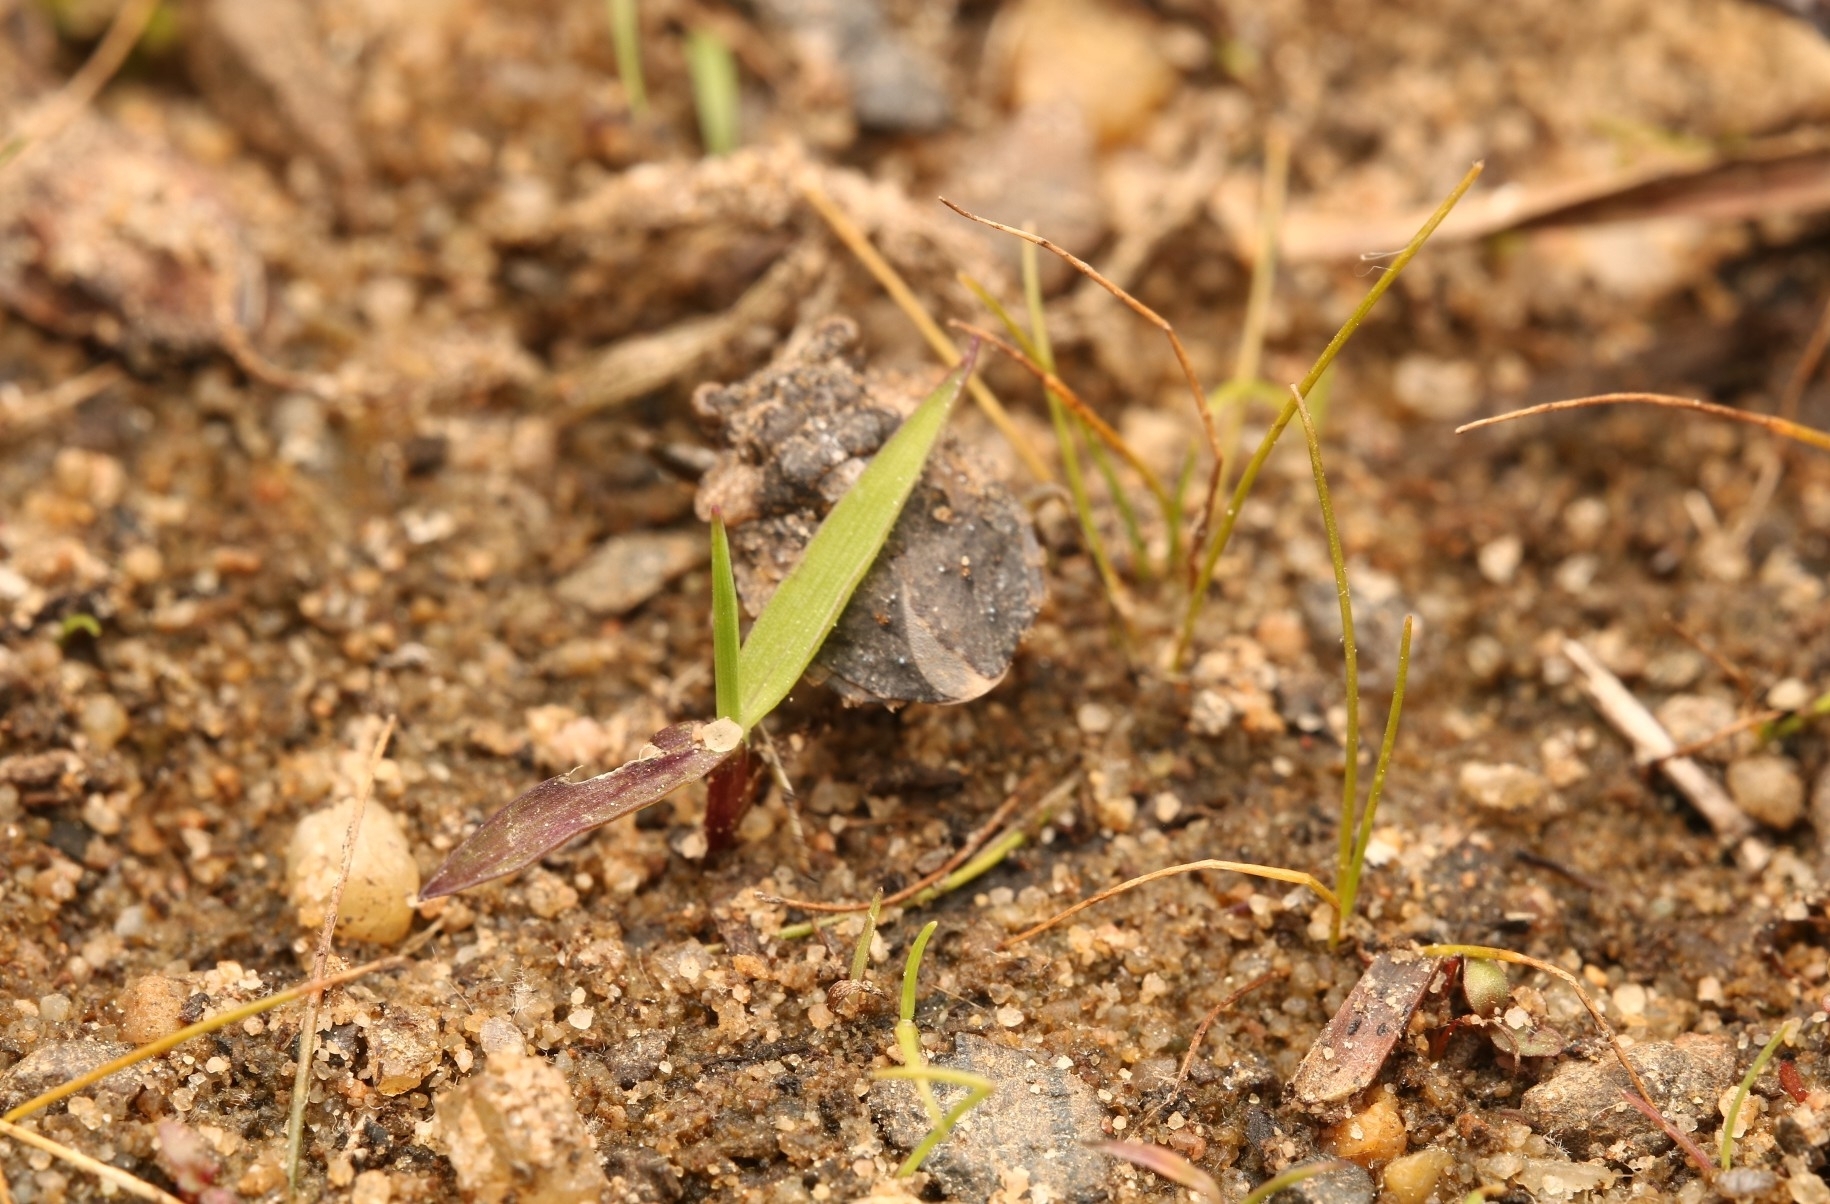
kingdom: Animalia
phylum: Arthropoda
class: Insecta
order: Hemiptera
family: Gelastocoridae
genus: Gelastocoris
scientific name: Gelastocoris oculatus
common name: Toad bug
